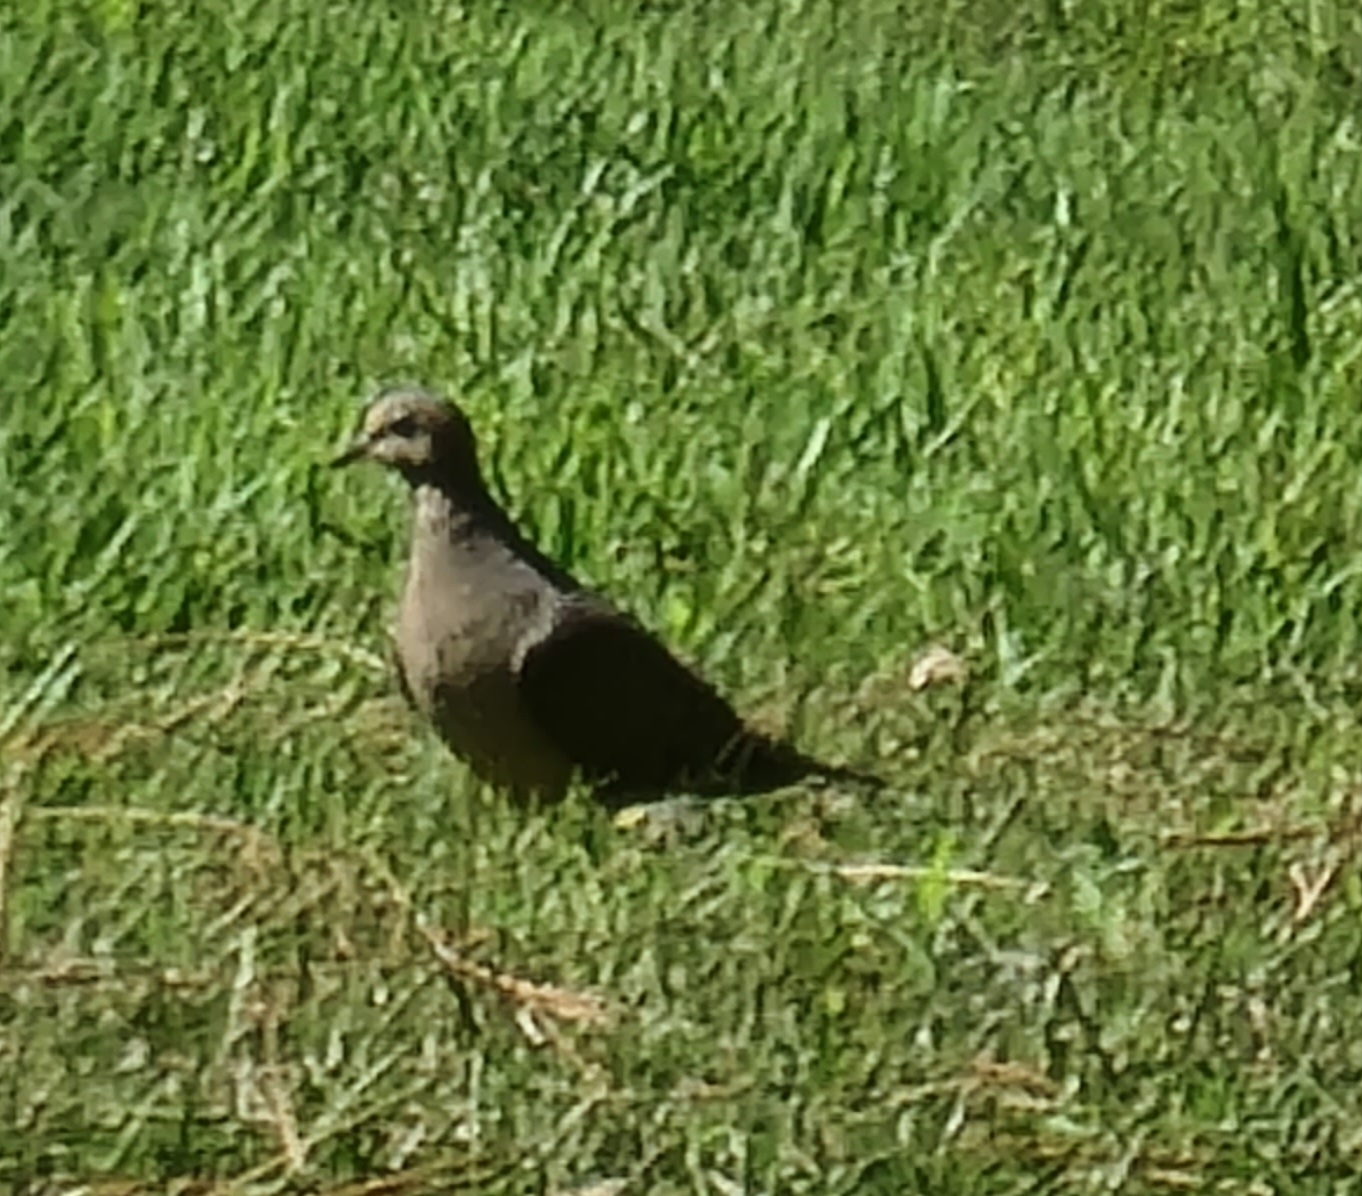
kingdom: Animalia
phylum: Chordata
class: Aves
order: Columbiformes
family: Columbidae
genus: Zenaida
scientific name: Zenaida macroura
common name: Mourning dove
